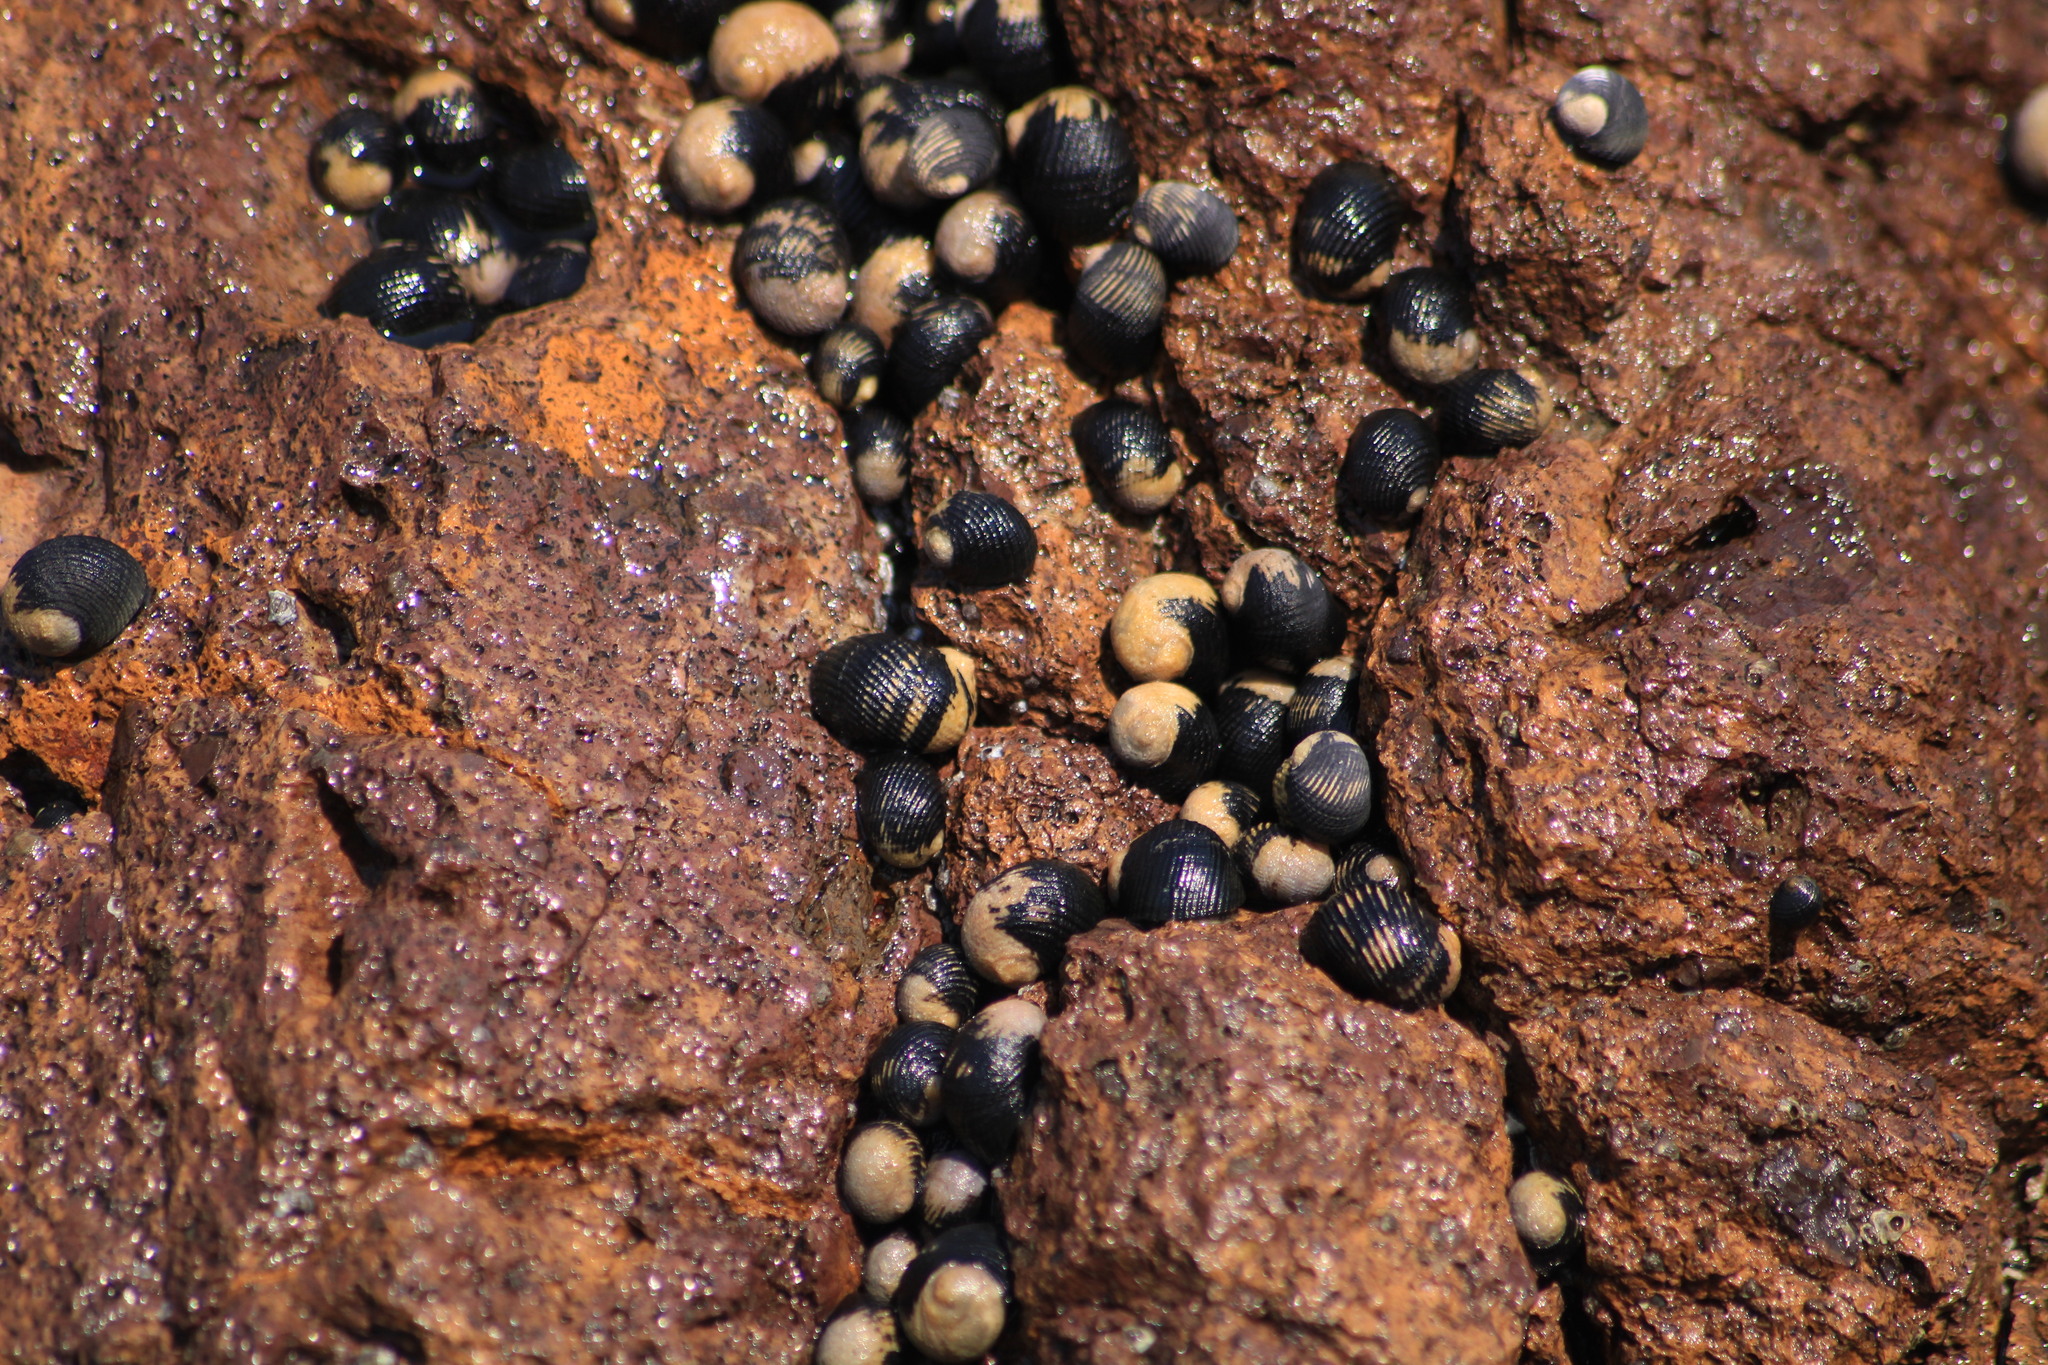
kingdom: Animalia
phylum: Mollusca
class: Gastropoda
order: Cycloneritida
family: Neritidae
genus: Nerita
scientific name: Nerita scabricosta
